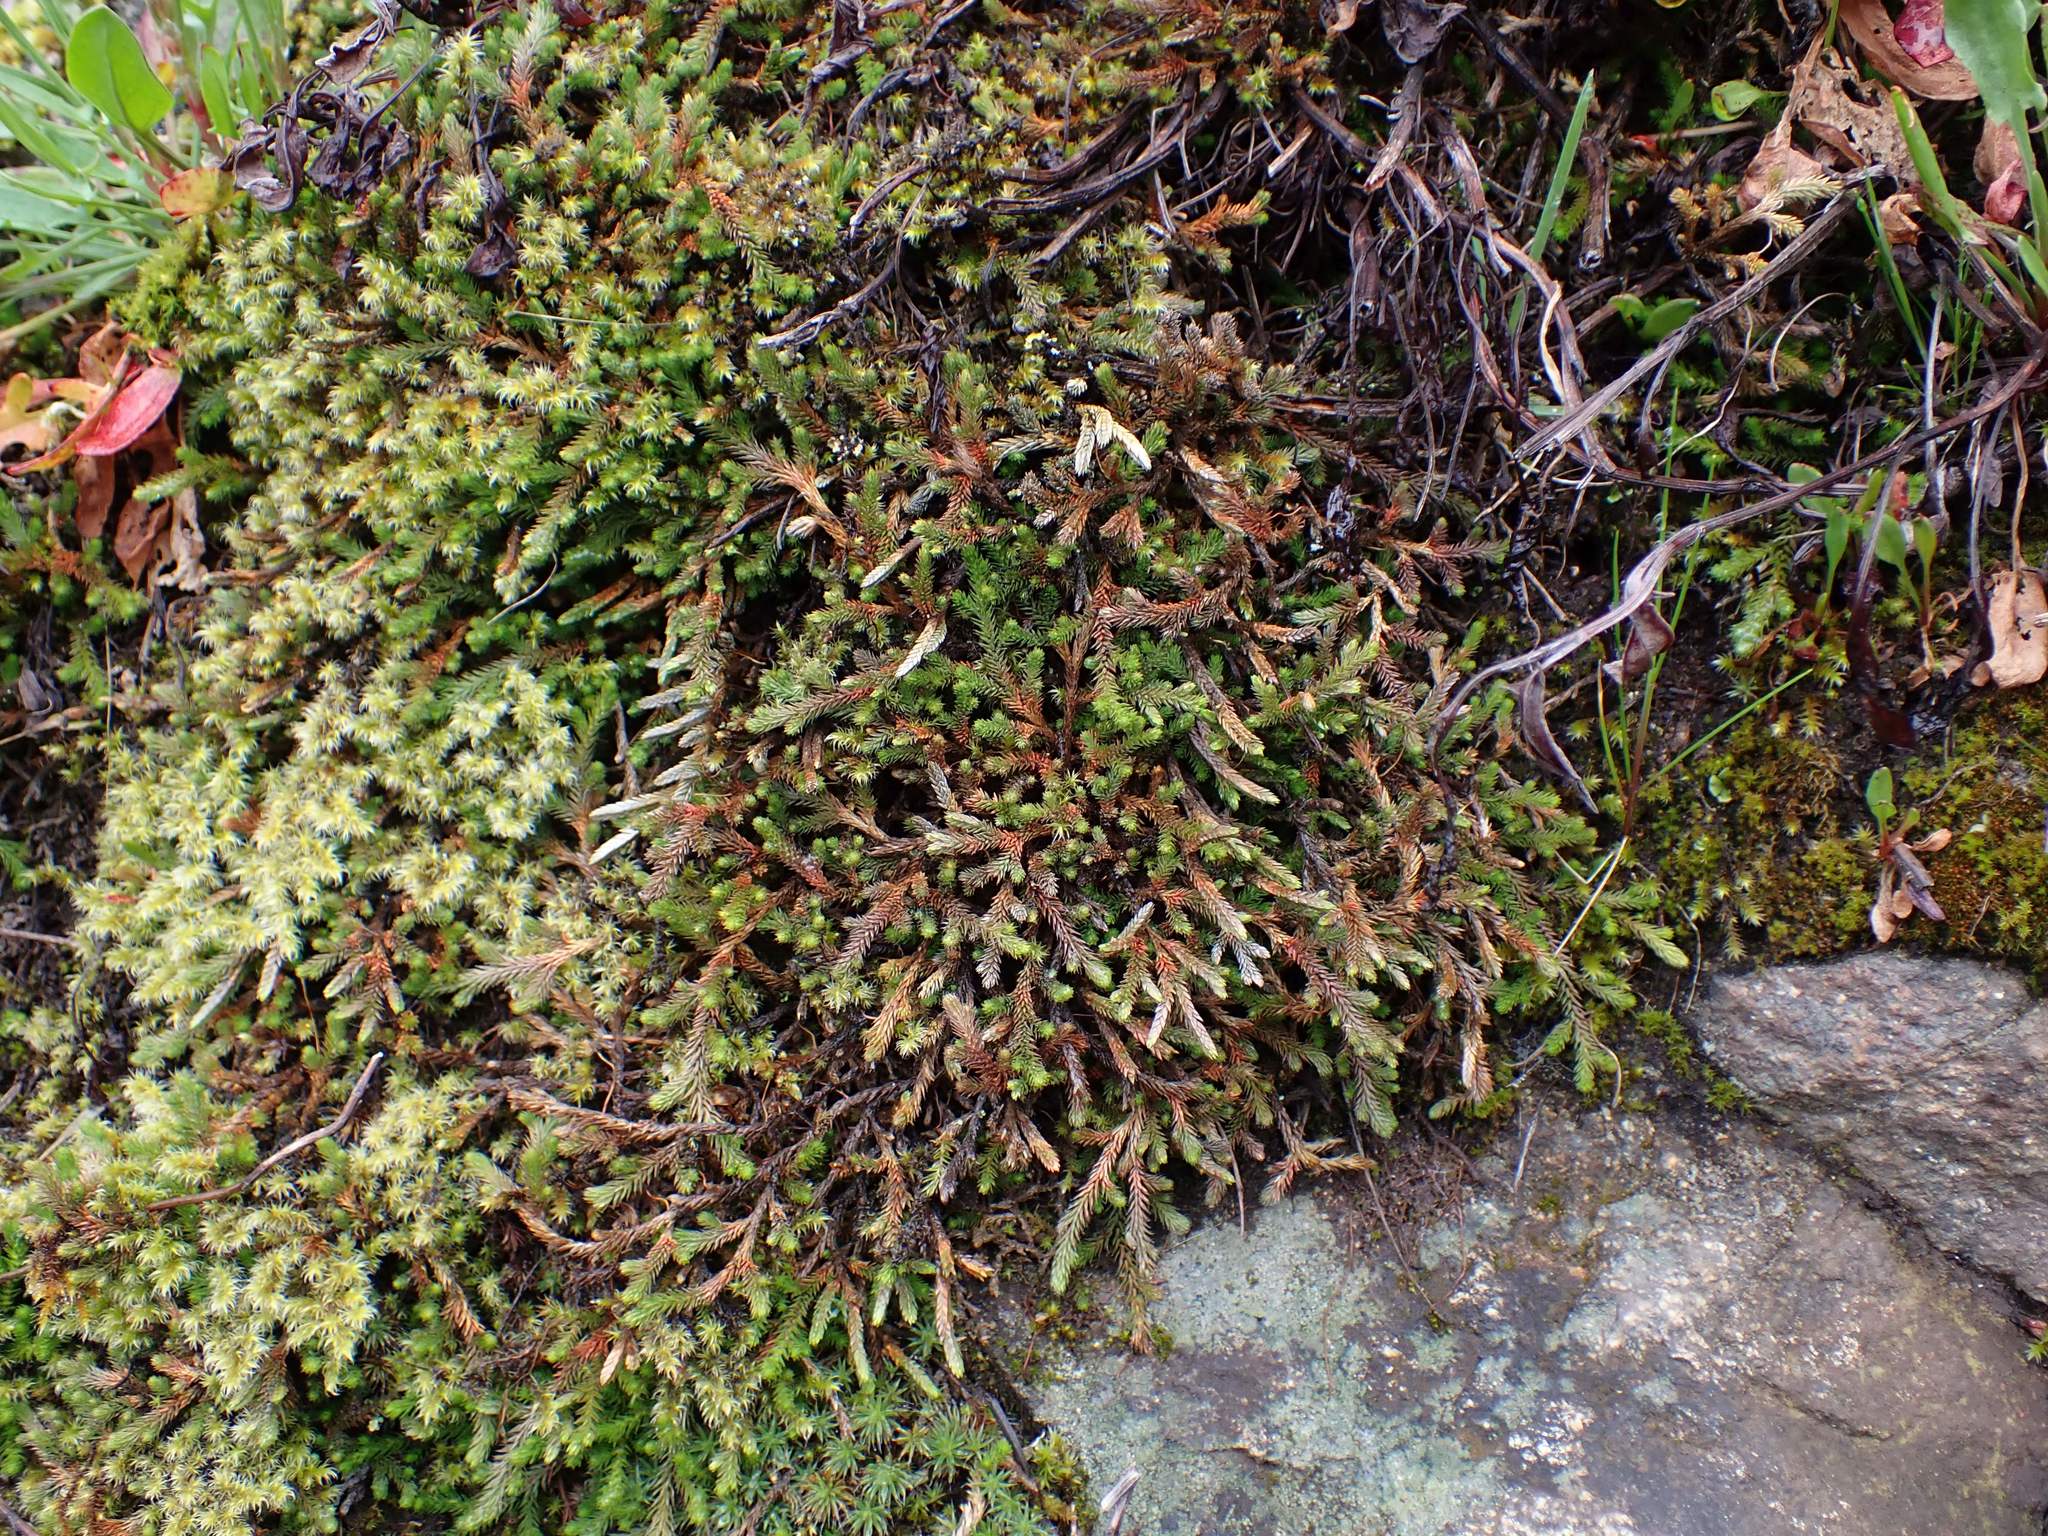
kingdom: Plantae
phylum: Tracheophyta
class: Lycopodiopsida
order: Selaginellales
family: Selaginellaceae
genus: Selaginella
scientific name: Selaginella wallacei
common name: Wallace's selaginella
